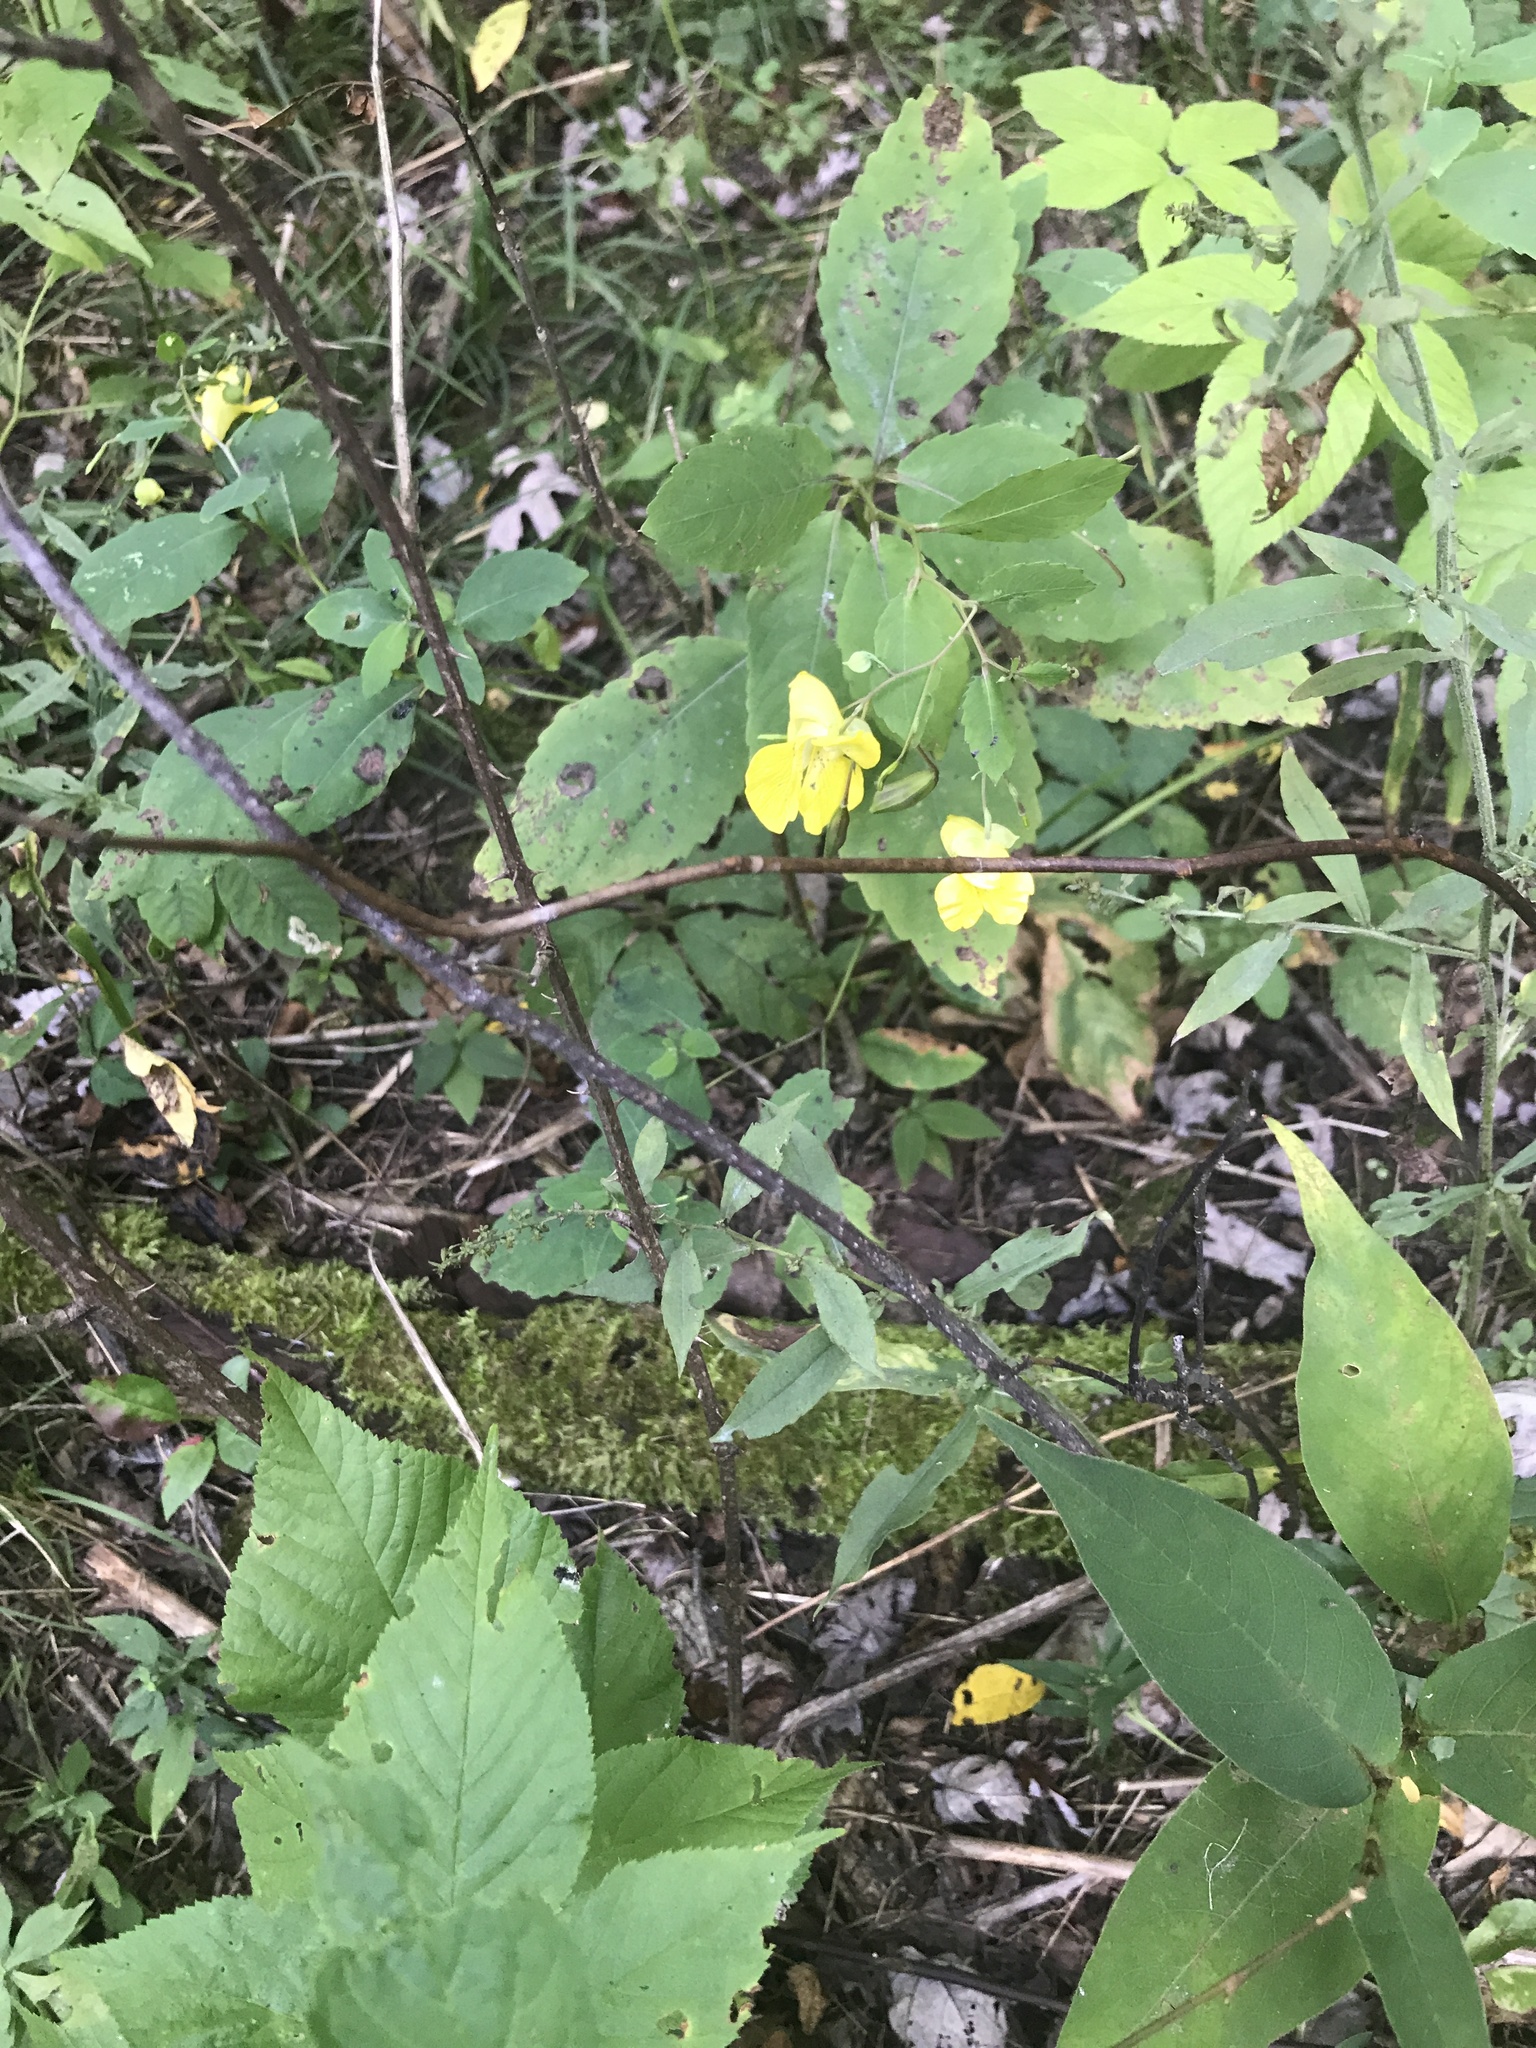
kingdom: Plantae
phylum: Tracheophyta
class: Magnoliopsida
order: Ericales
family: Balsaminaceae
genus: Impatiens
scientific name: Impatiens pallida
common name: Pale snapweed
